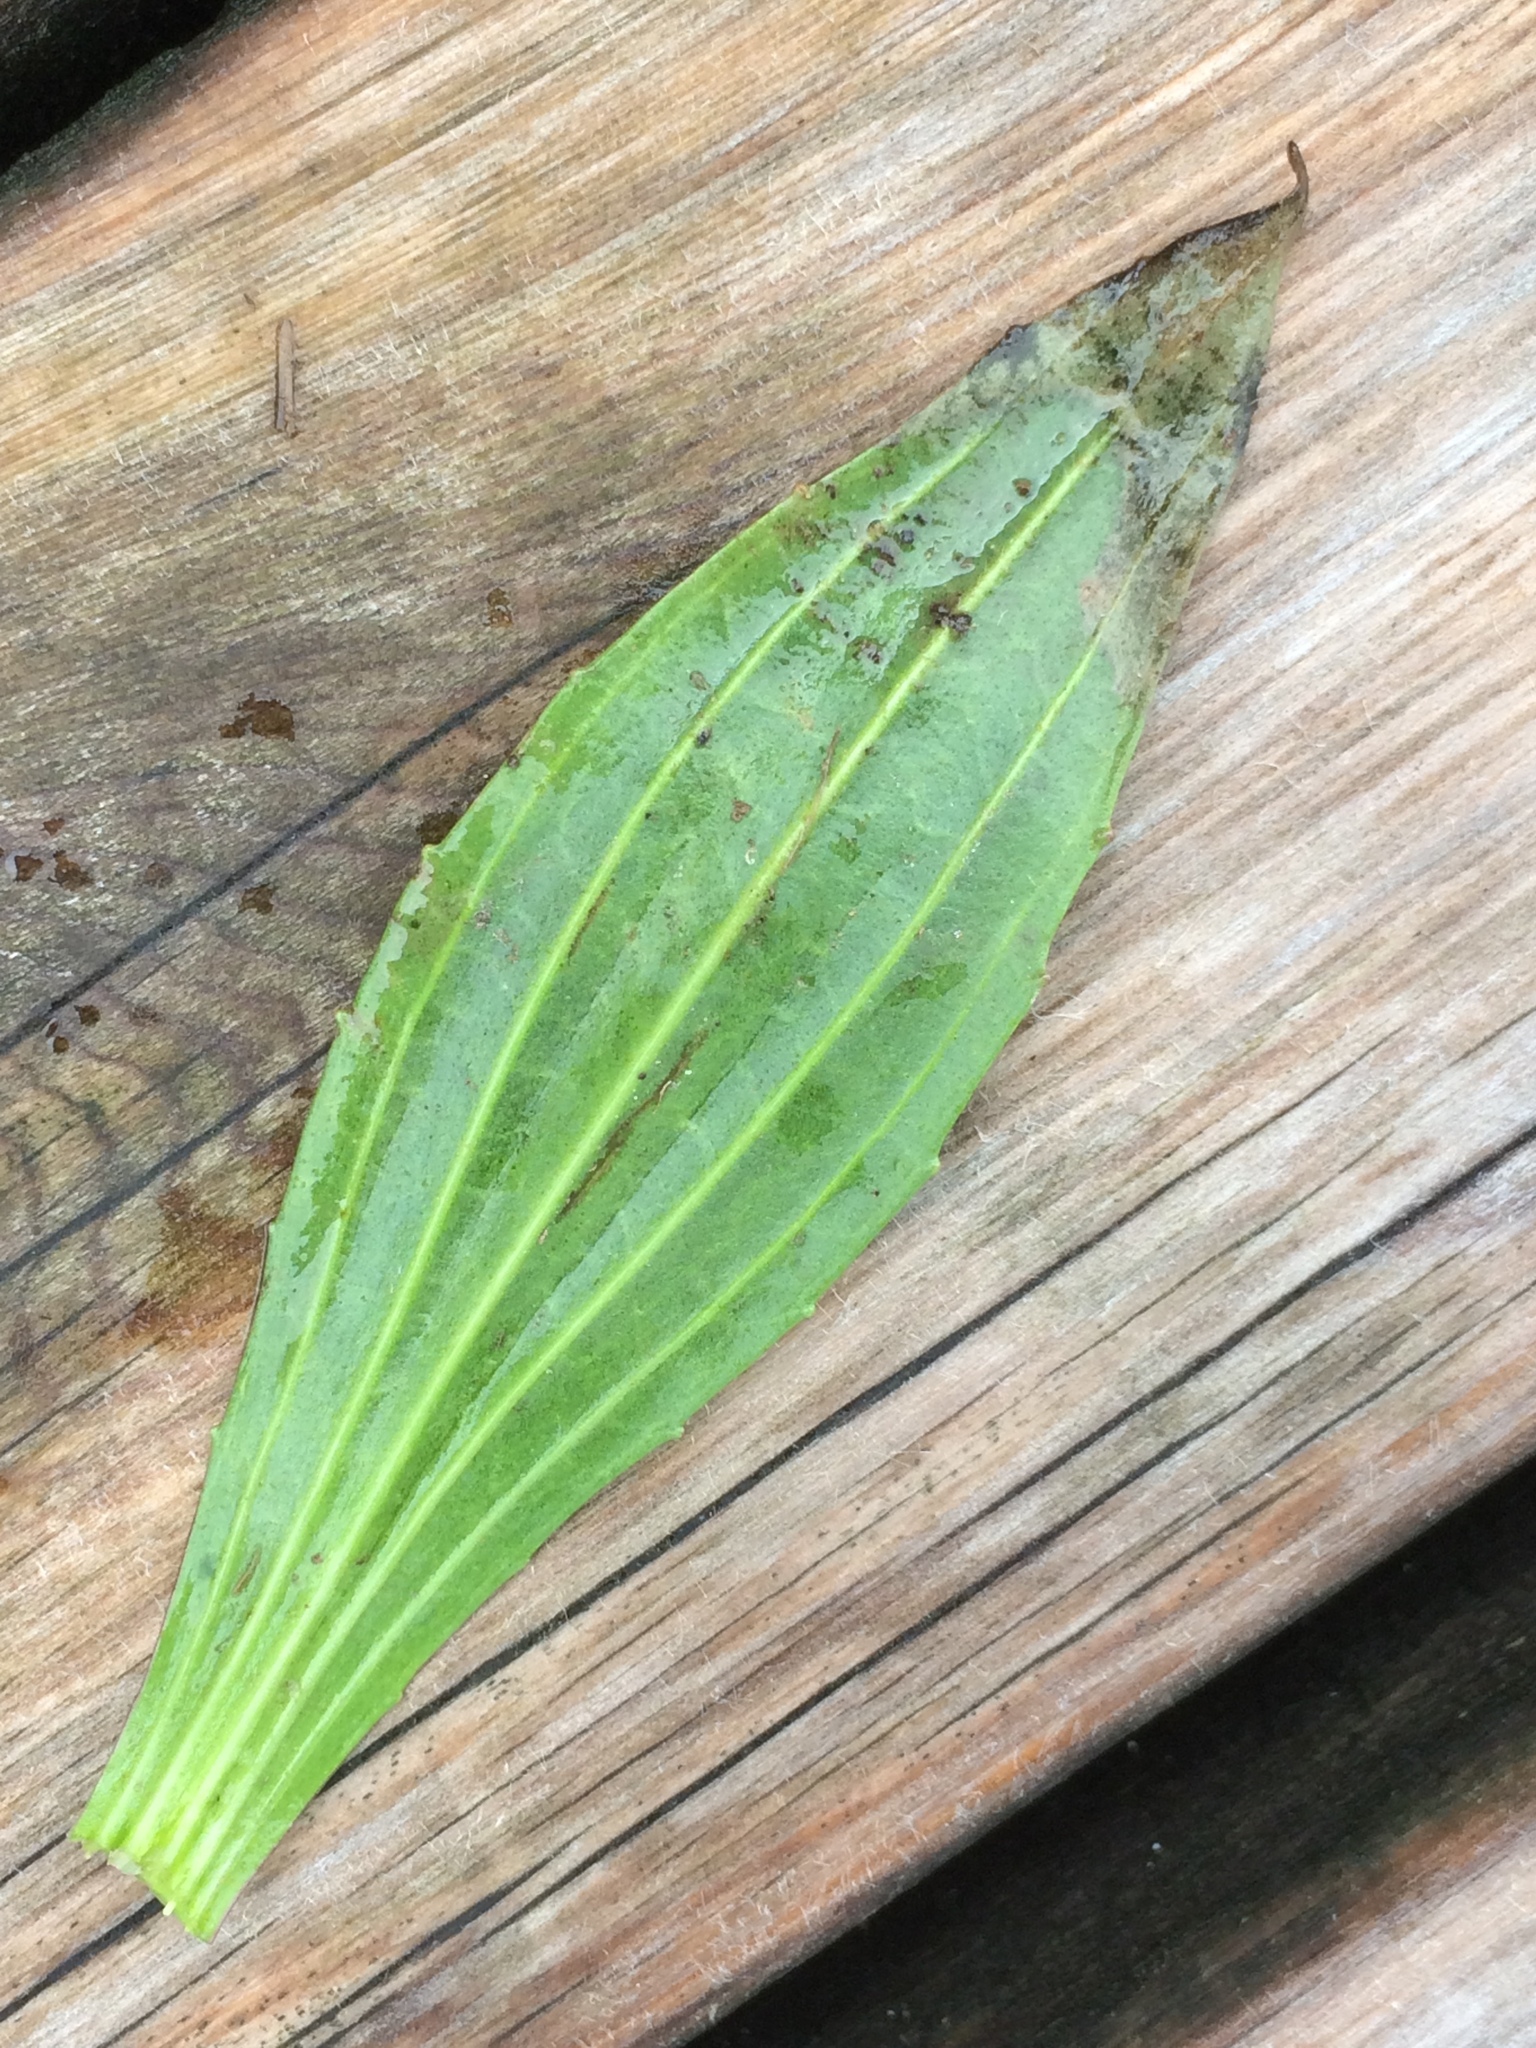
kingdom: Plantae
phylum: Tracheophyta
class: Magnoliopsida
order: Lamiales
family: Plantaginaceae
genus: Plantago
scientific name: Plantago lanceolata
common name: Ribwort plantain
